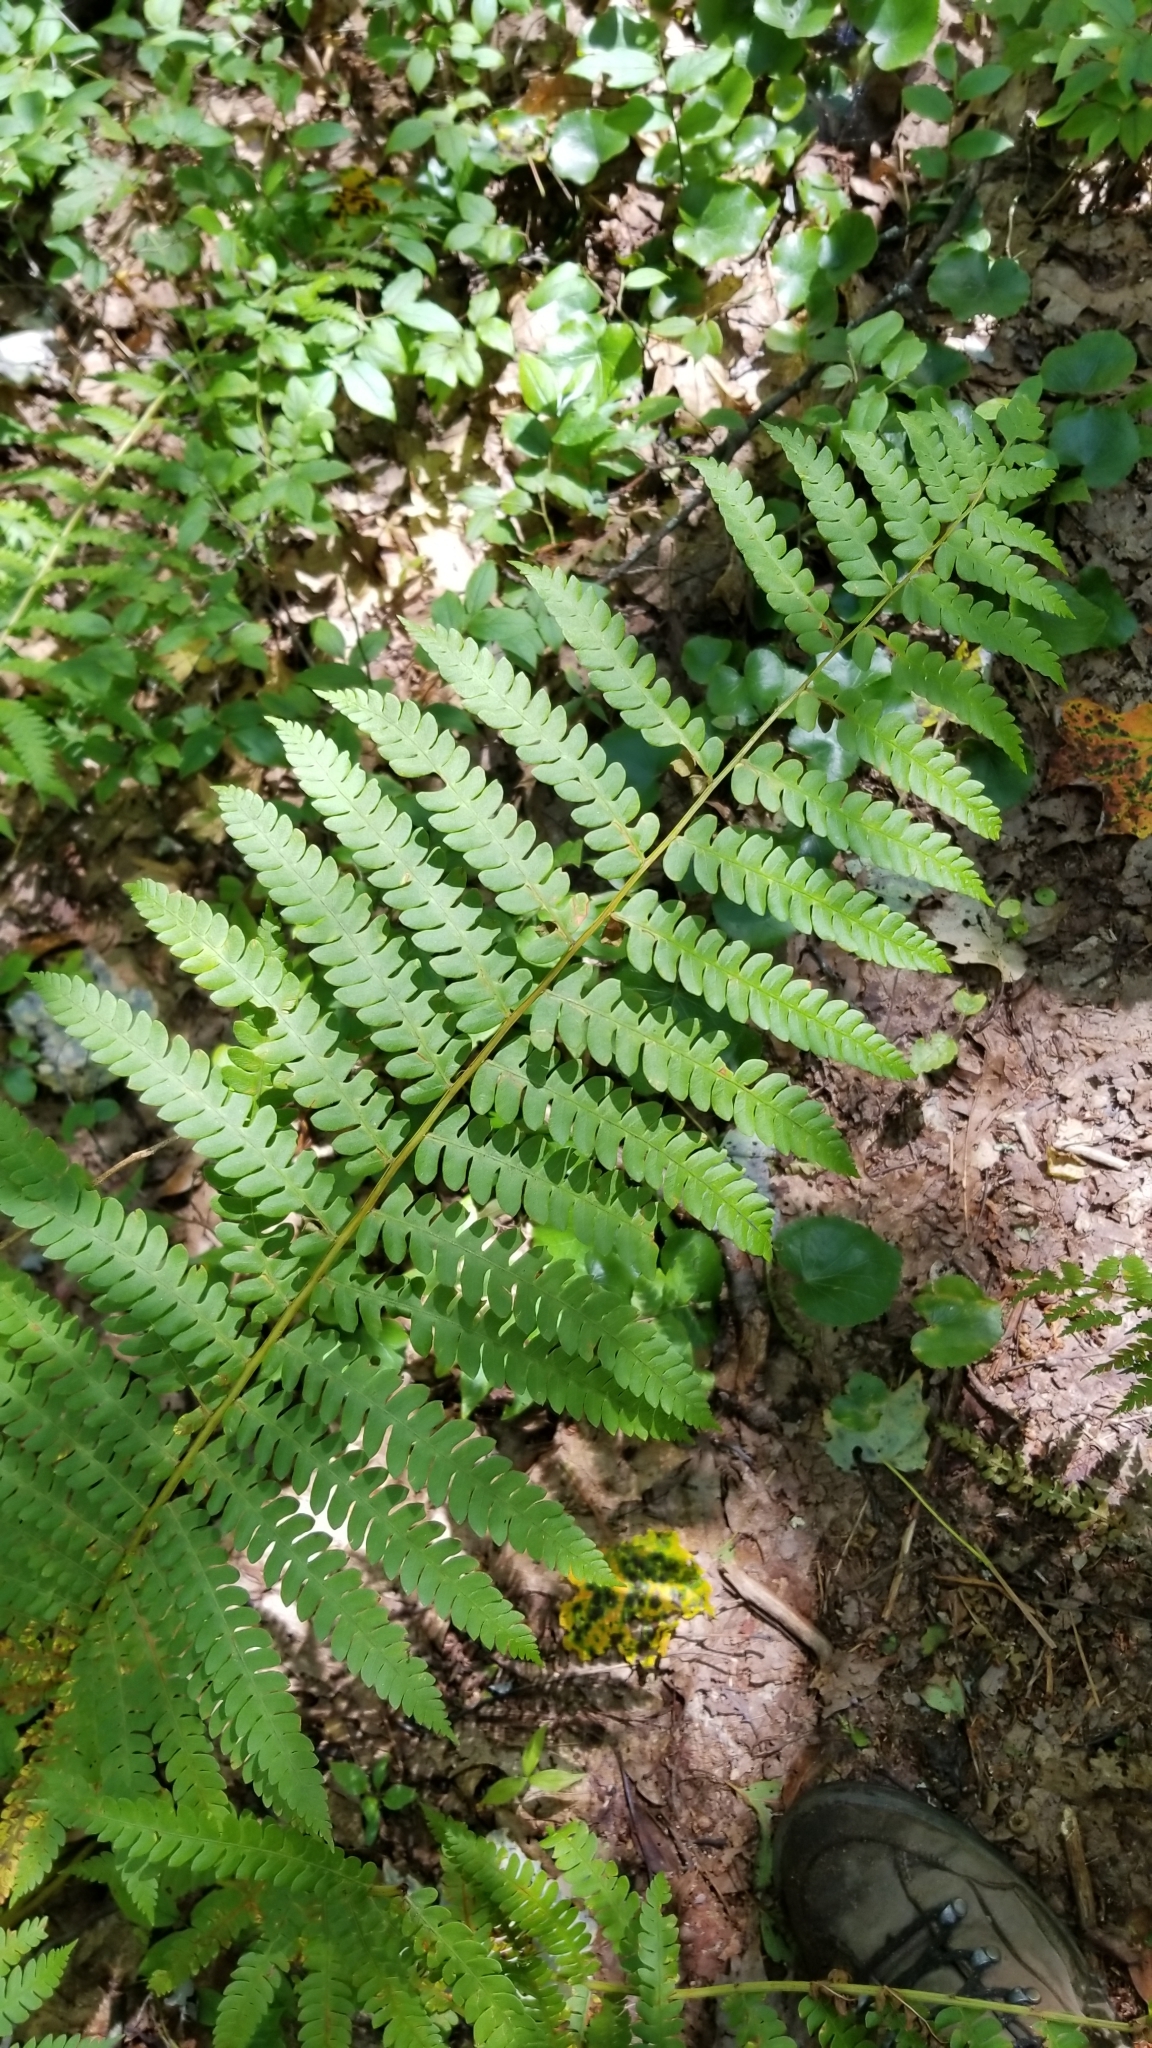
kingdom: Plantae
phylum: Tracheophyta
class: Polypodiopsida
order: Osmundales
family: Osmundaceae
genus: Osmundastrum
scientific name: Osmundastrum cinnamomeum
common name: Cinnamon fern
